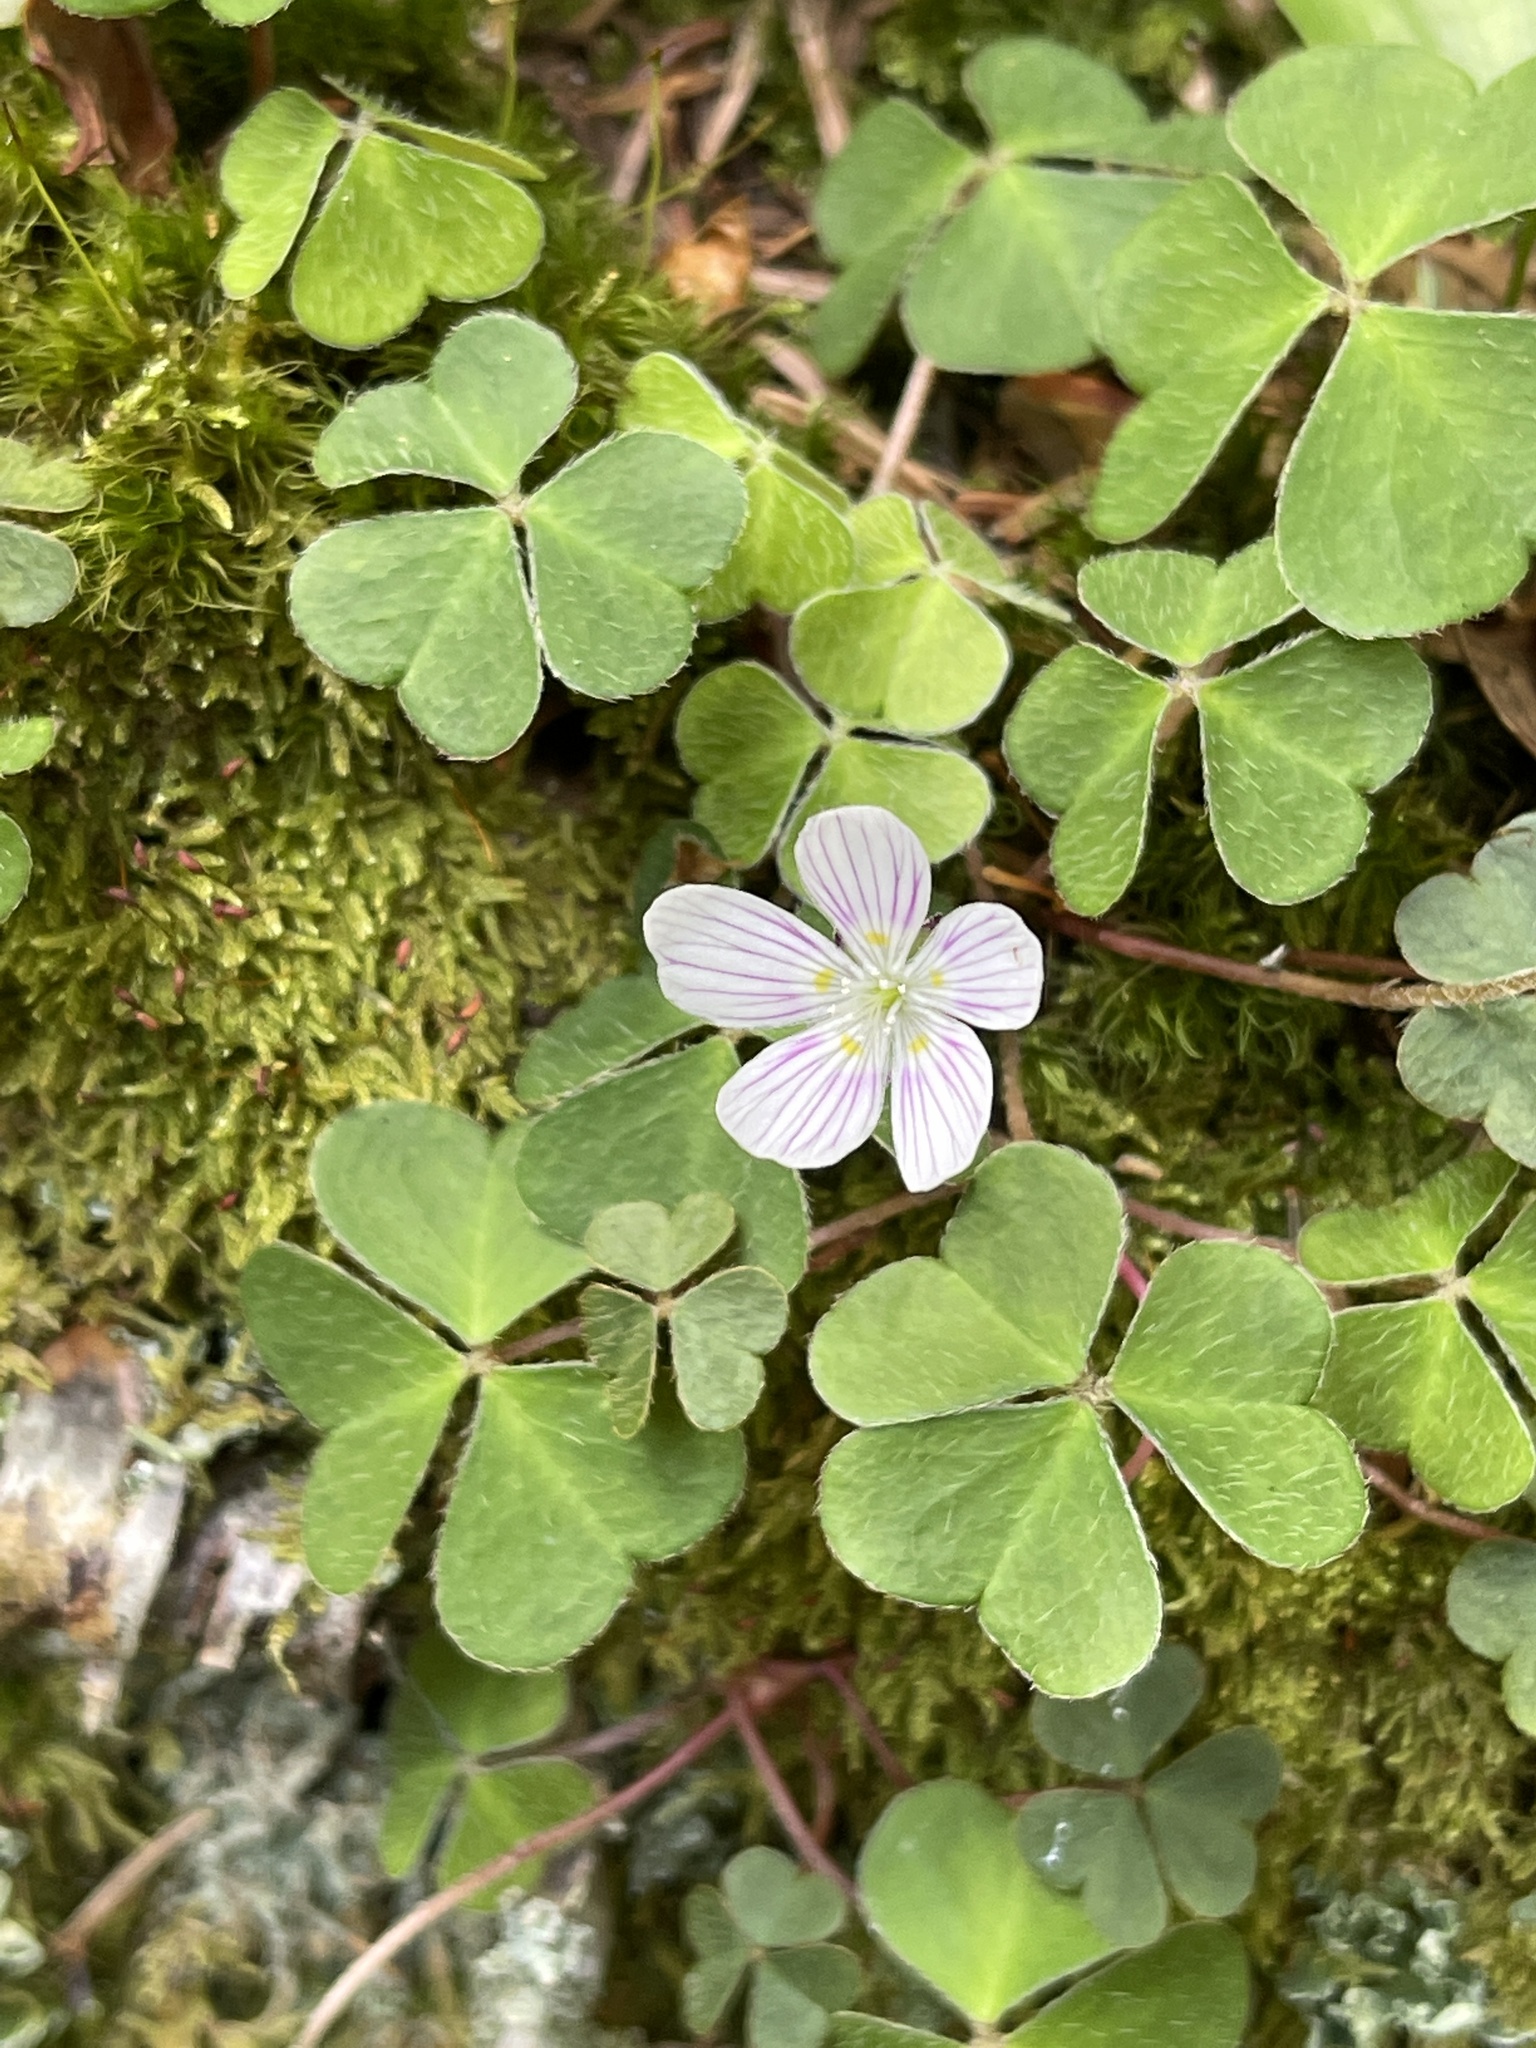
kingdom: Plantae
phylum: Tracheophyta
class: Magnoliopsida
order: Oxalidales
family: Oxalidaceae
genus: Oxalis
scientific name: Oxalis montana
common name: American wood-sorrel
